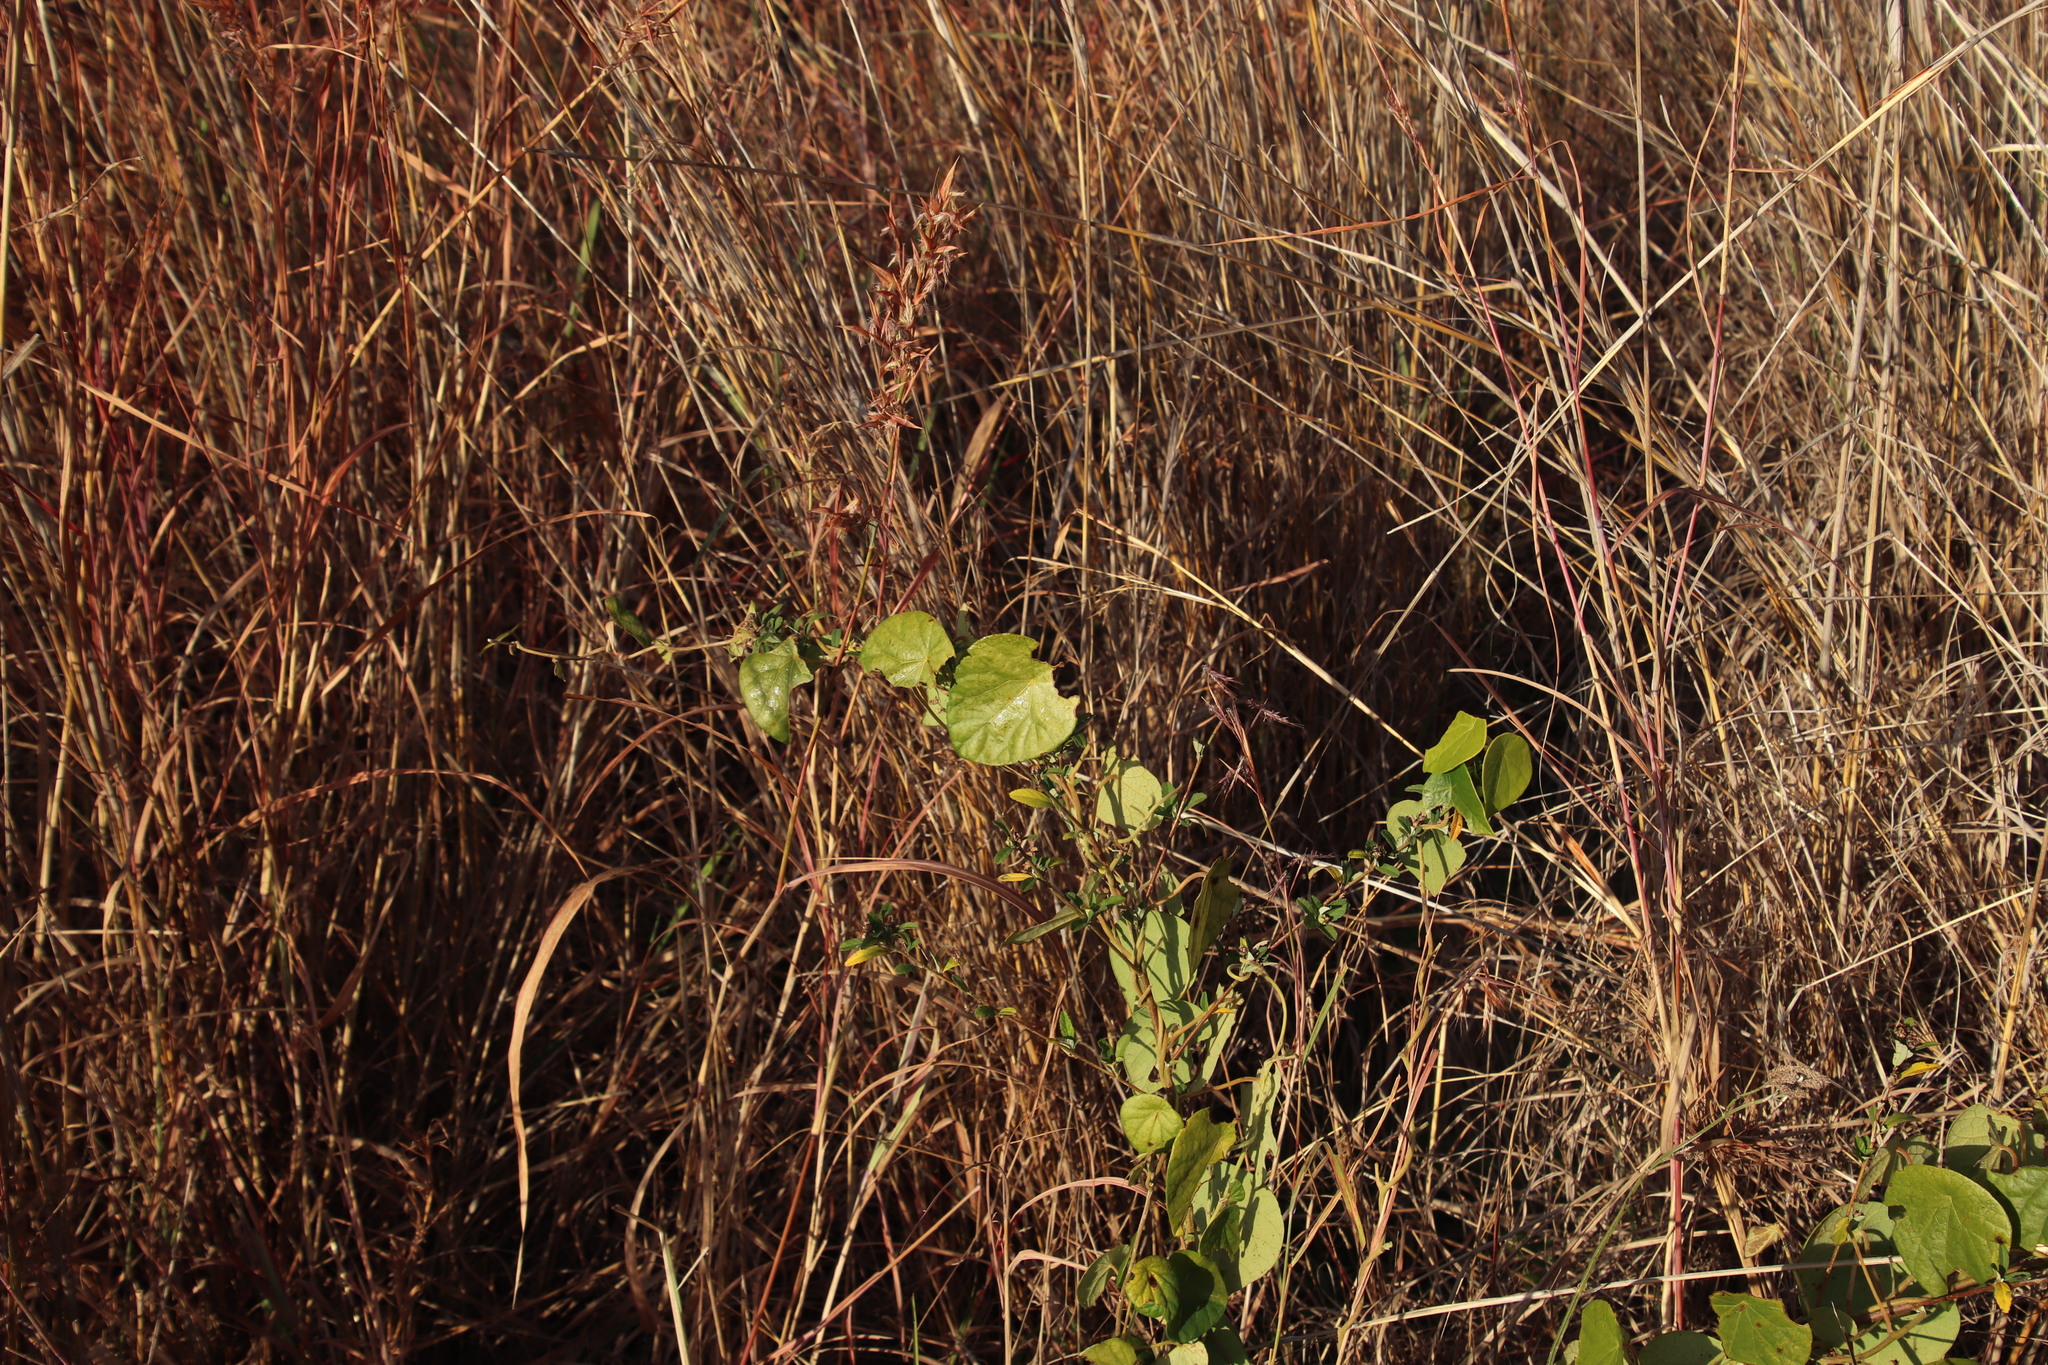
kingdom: Plantae
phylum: Tracheophyta
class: Magnoliopsida
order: Ranunculales
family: Menispermaceae
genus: Stephania
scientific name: Stephania abyssinica
